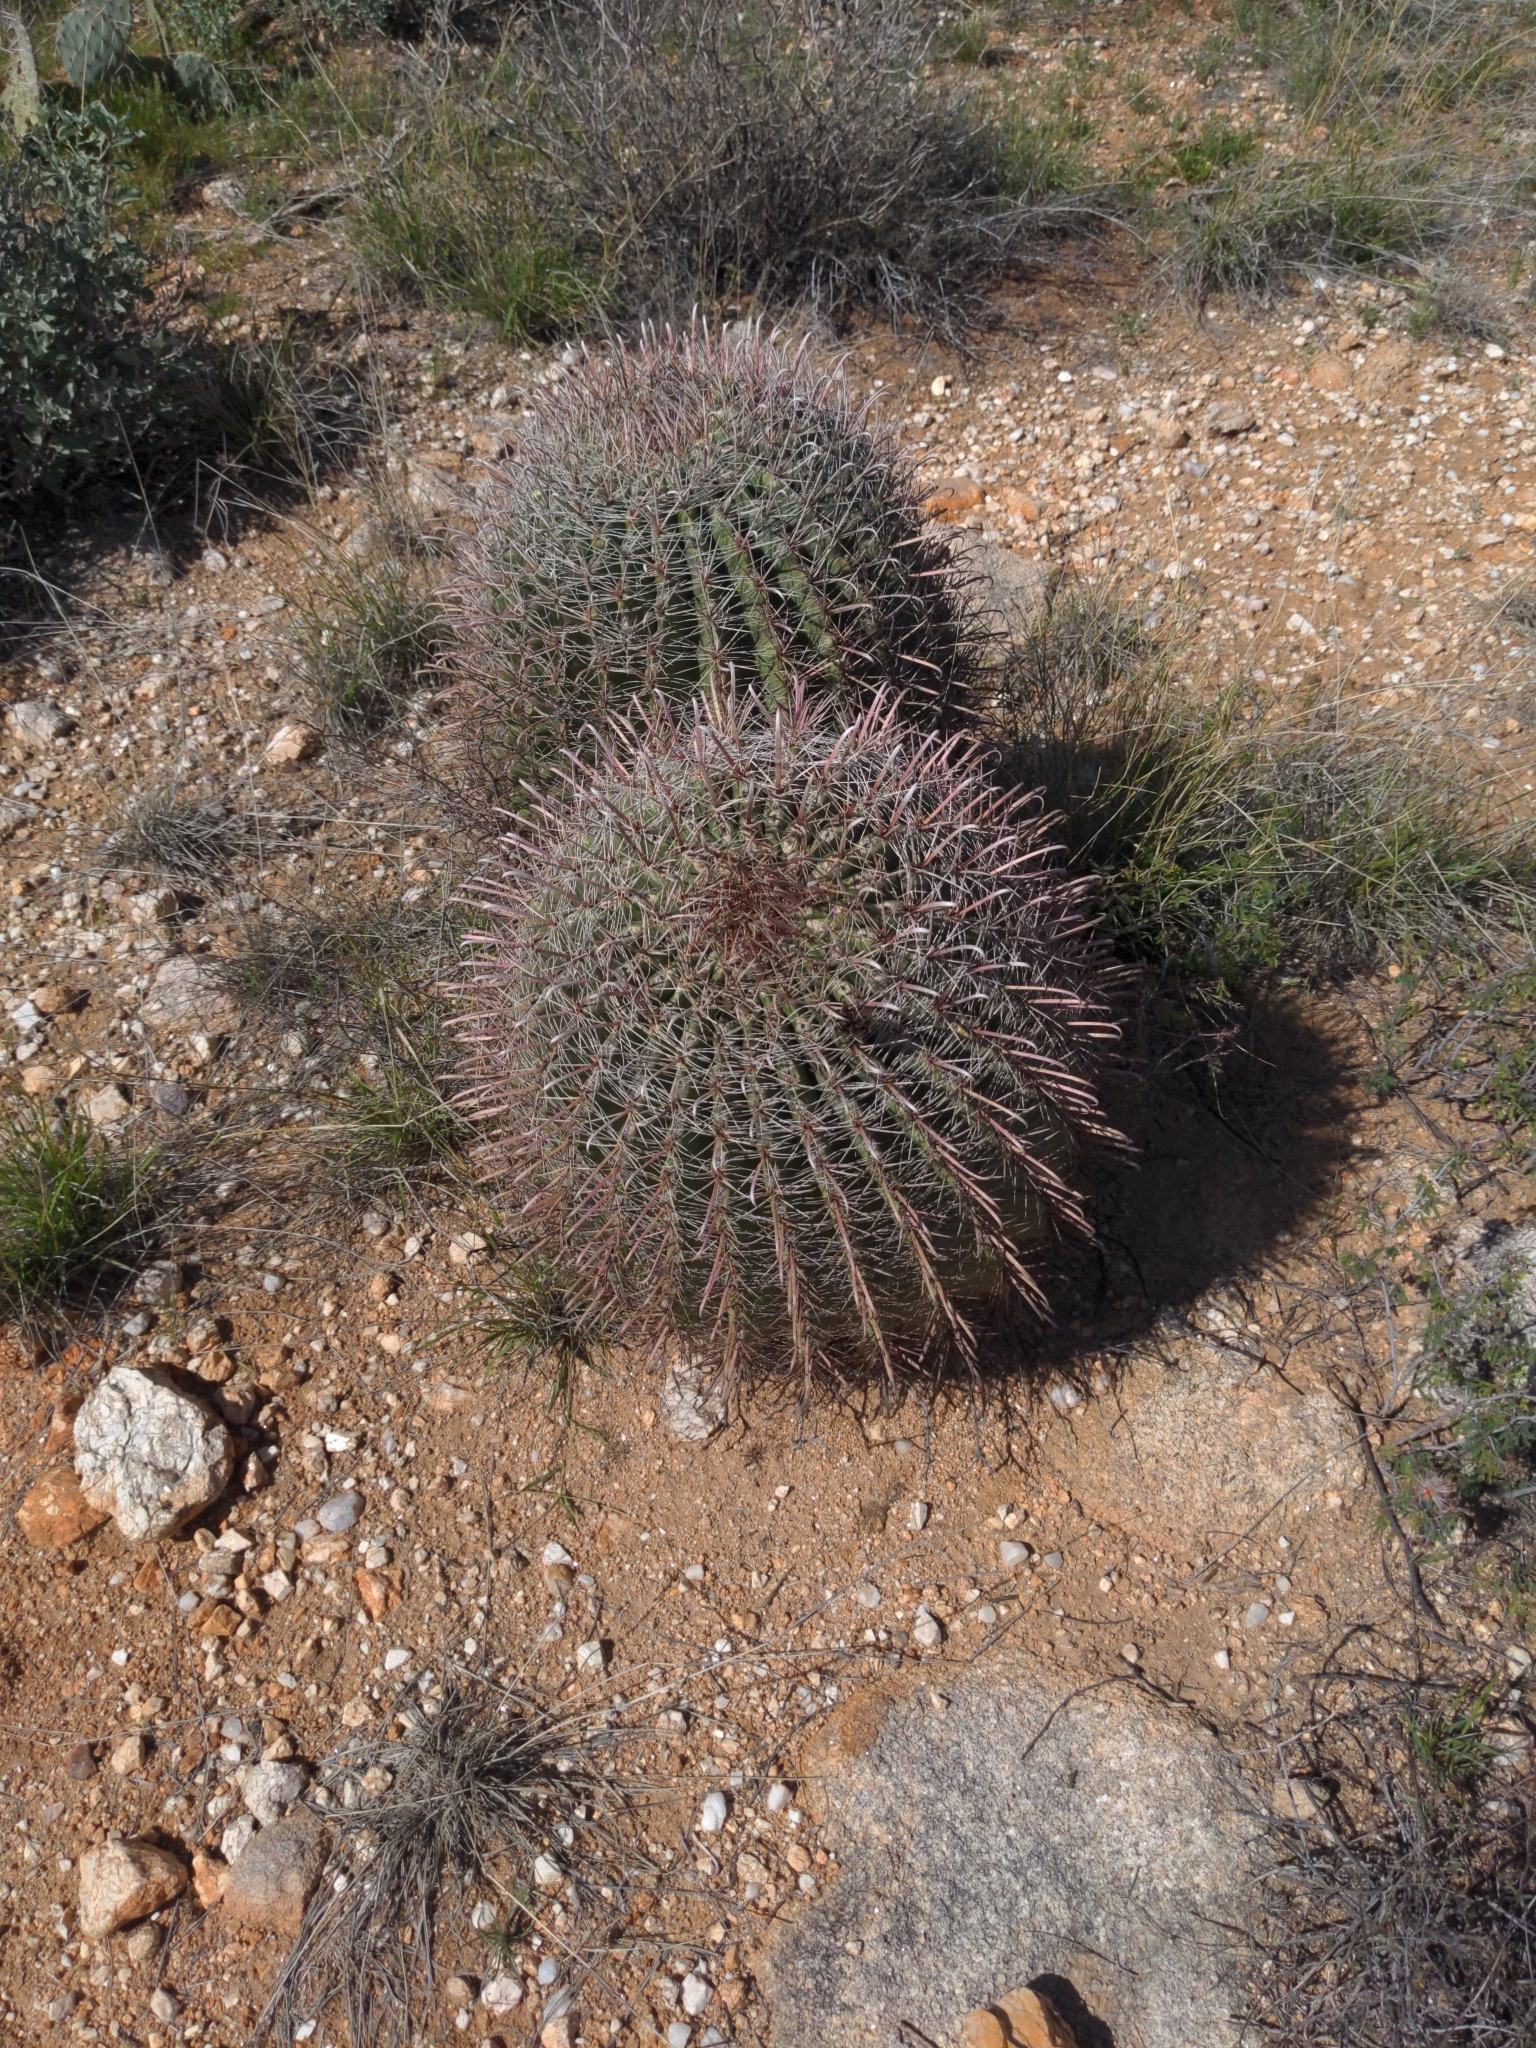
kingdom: Plantae
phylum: Tracheophyta
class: Magnoliopsida
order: Caryophyllales
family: Cactaceae
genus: Ferocactus
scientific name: Ferocactus wislizeni
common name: Candy barrel cactus
